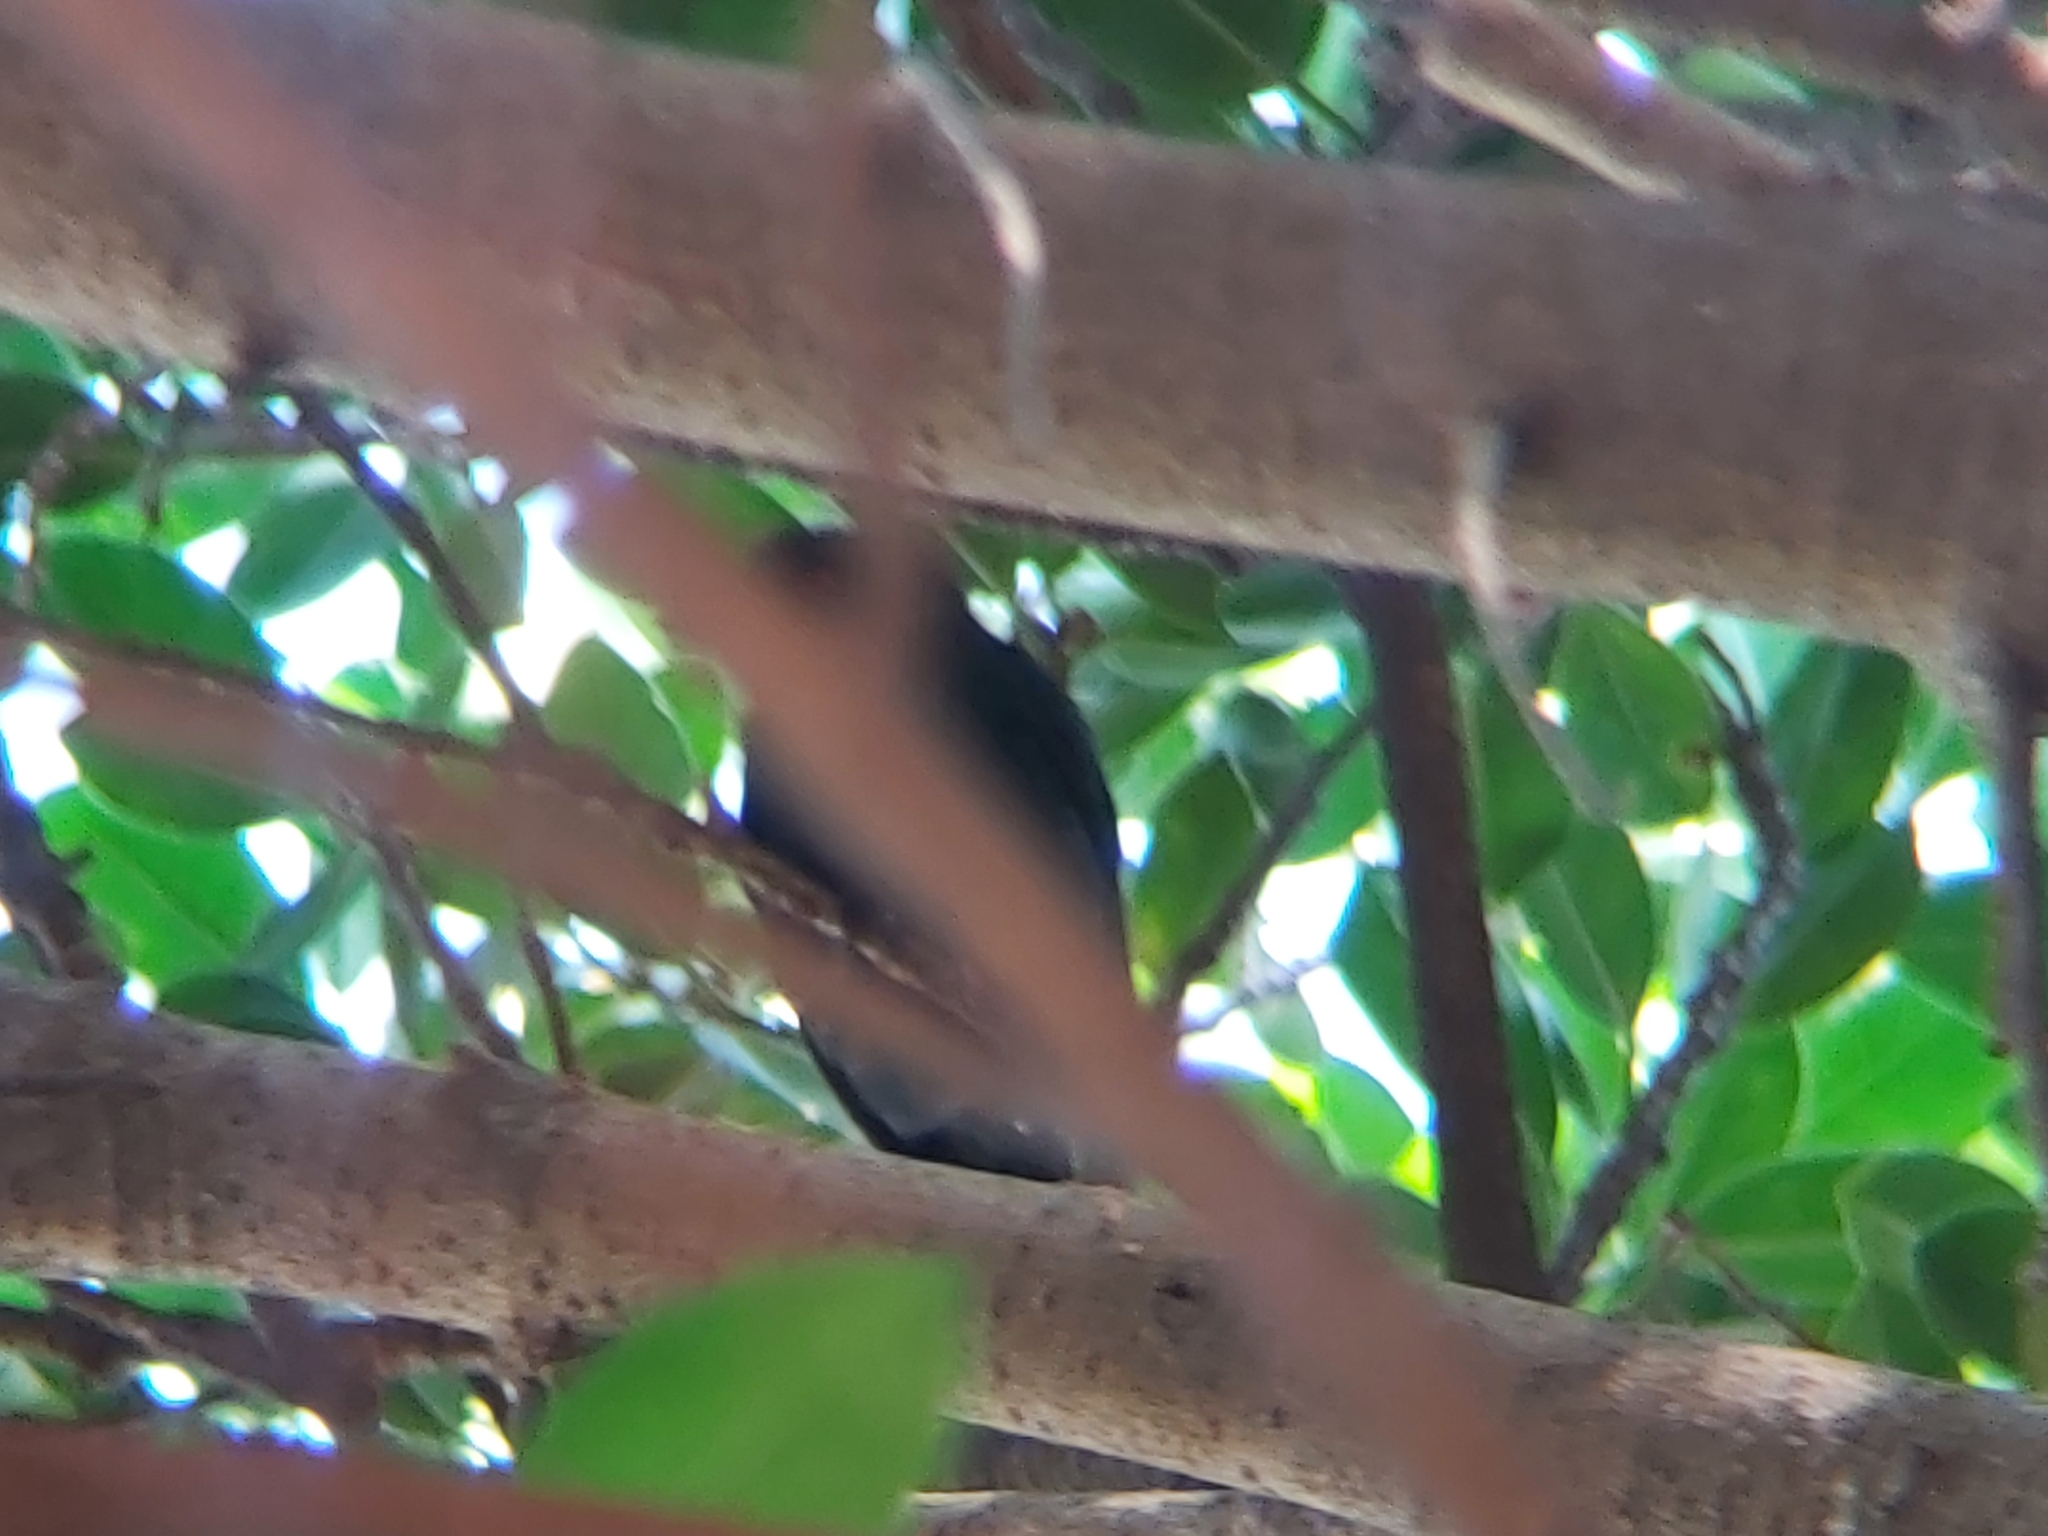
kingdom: Animalia
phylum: Chordata
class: Aves
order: Passeriformes
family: Sturnidae
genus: Aplonis
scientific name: Aplonis panayensis
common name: Asian glossy starling
